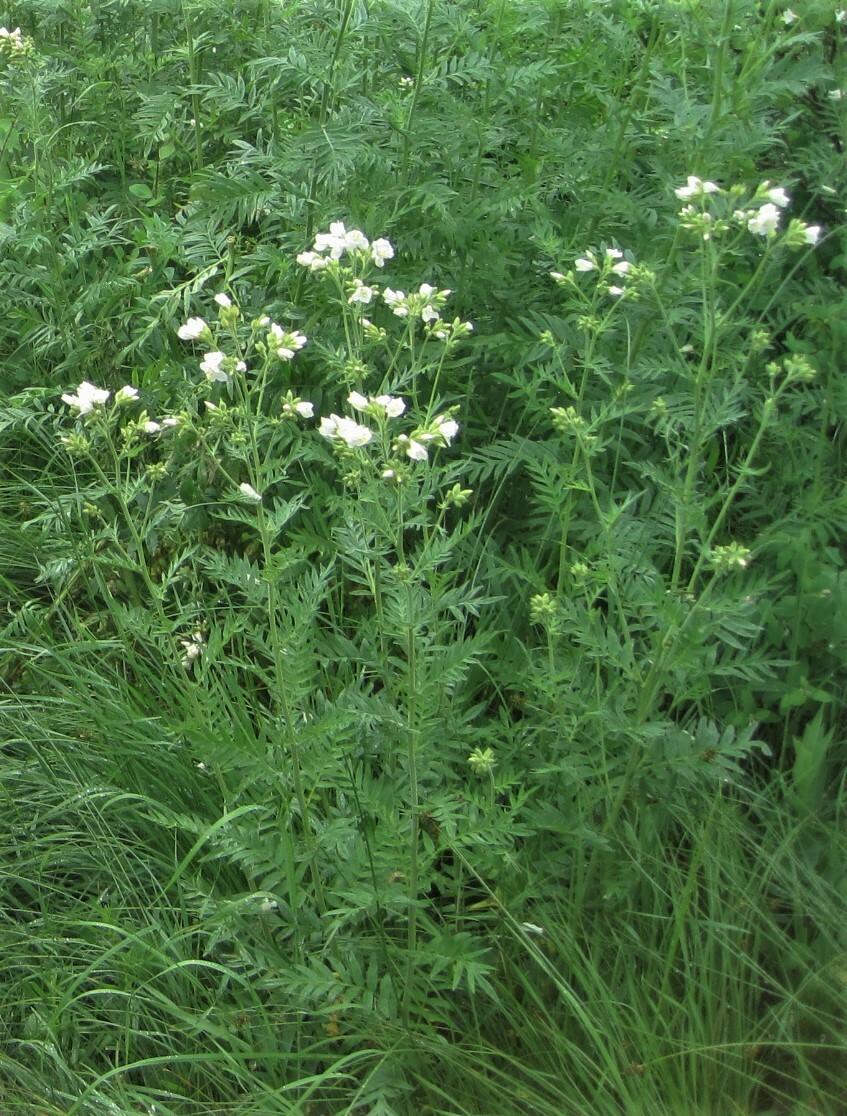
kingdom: Plantae
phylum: Tracheophyta
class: Magnoliopsida
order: Ericales
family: Polemoniaceae
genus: Polemonium
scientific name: Polemonium foliosissimum
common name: Leafy jacob's-ladder
